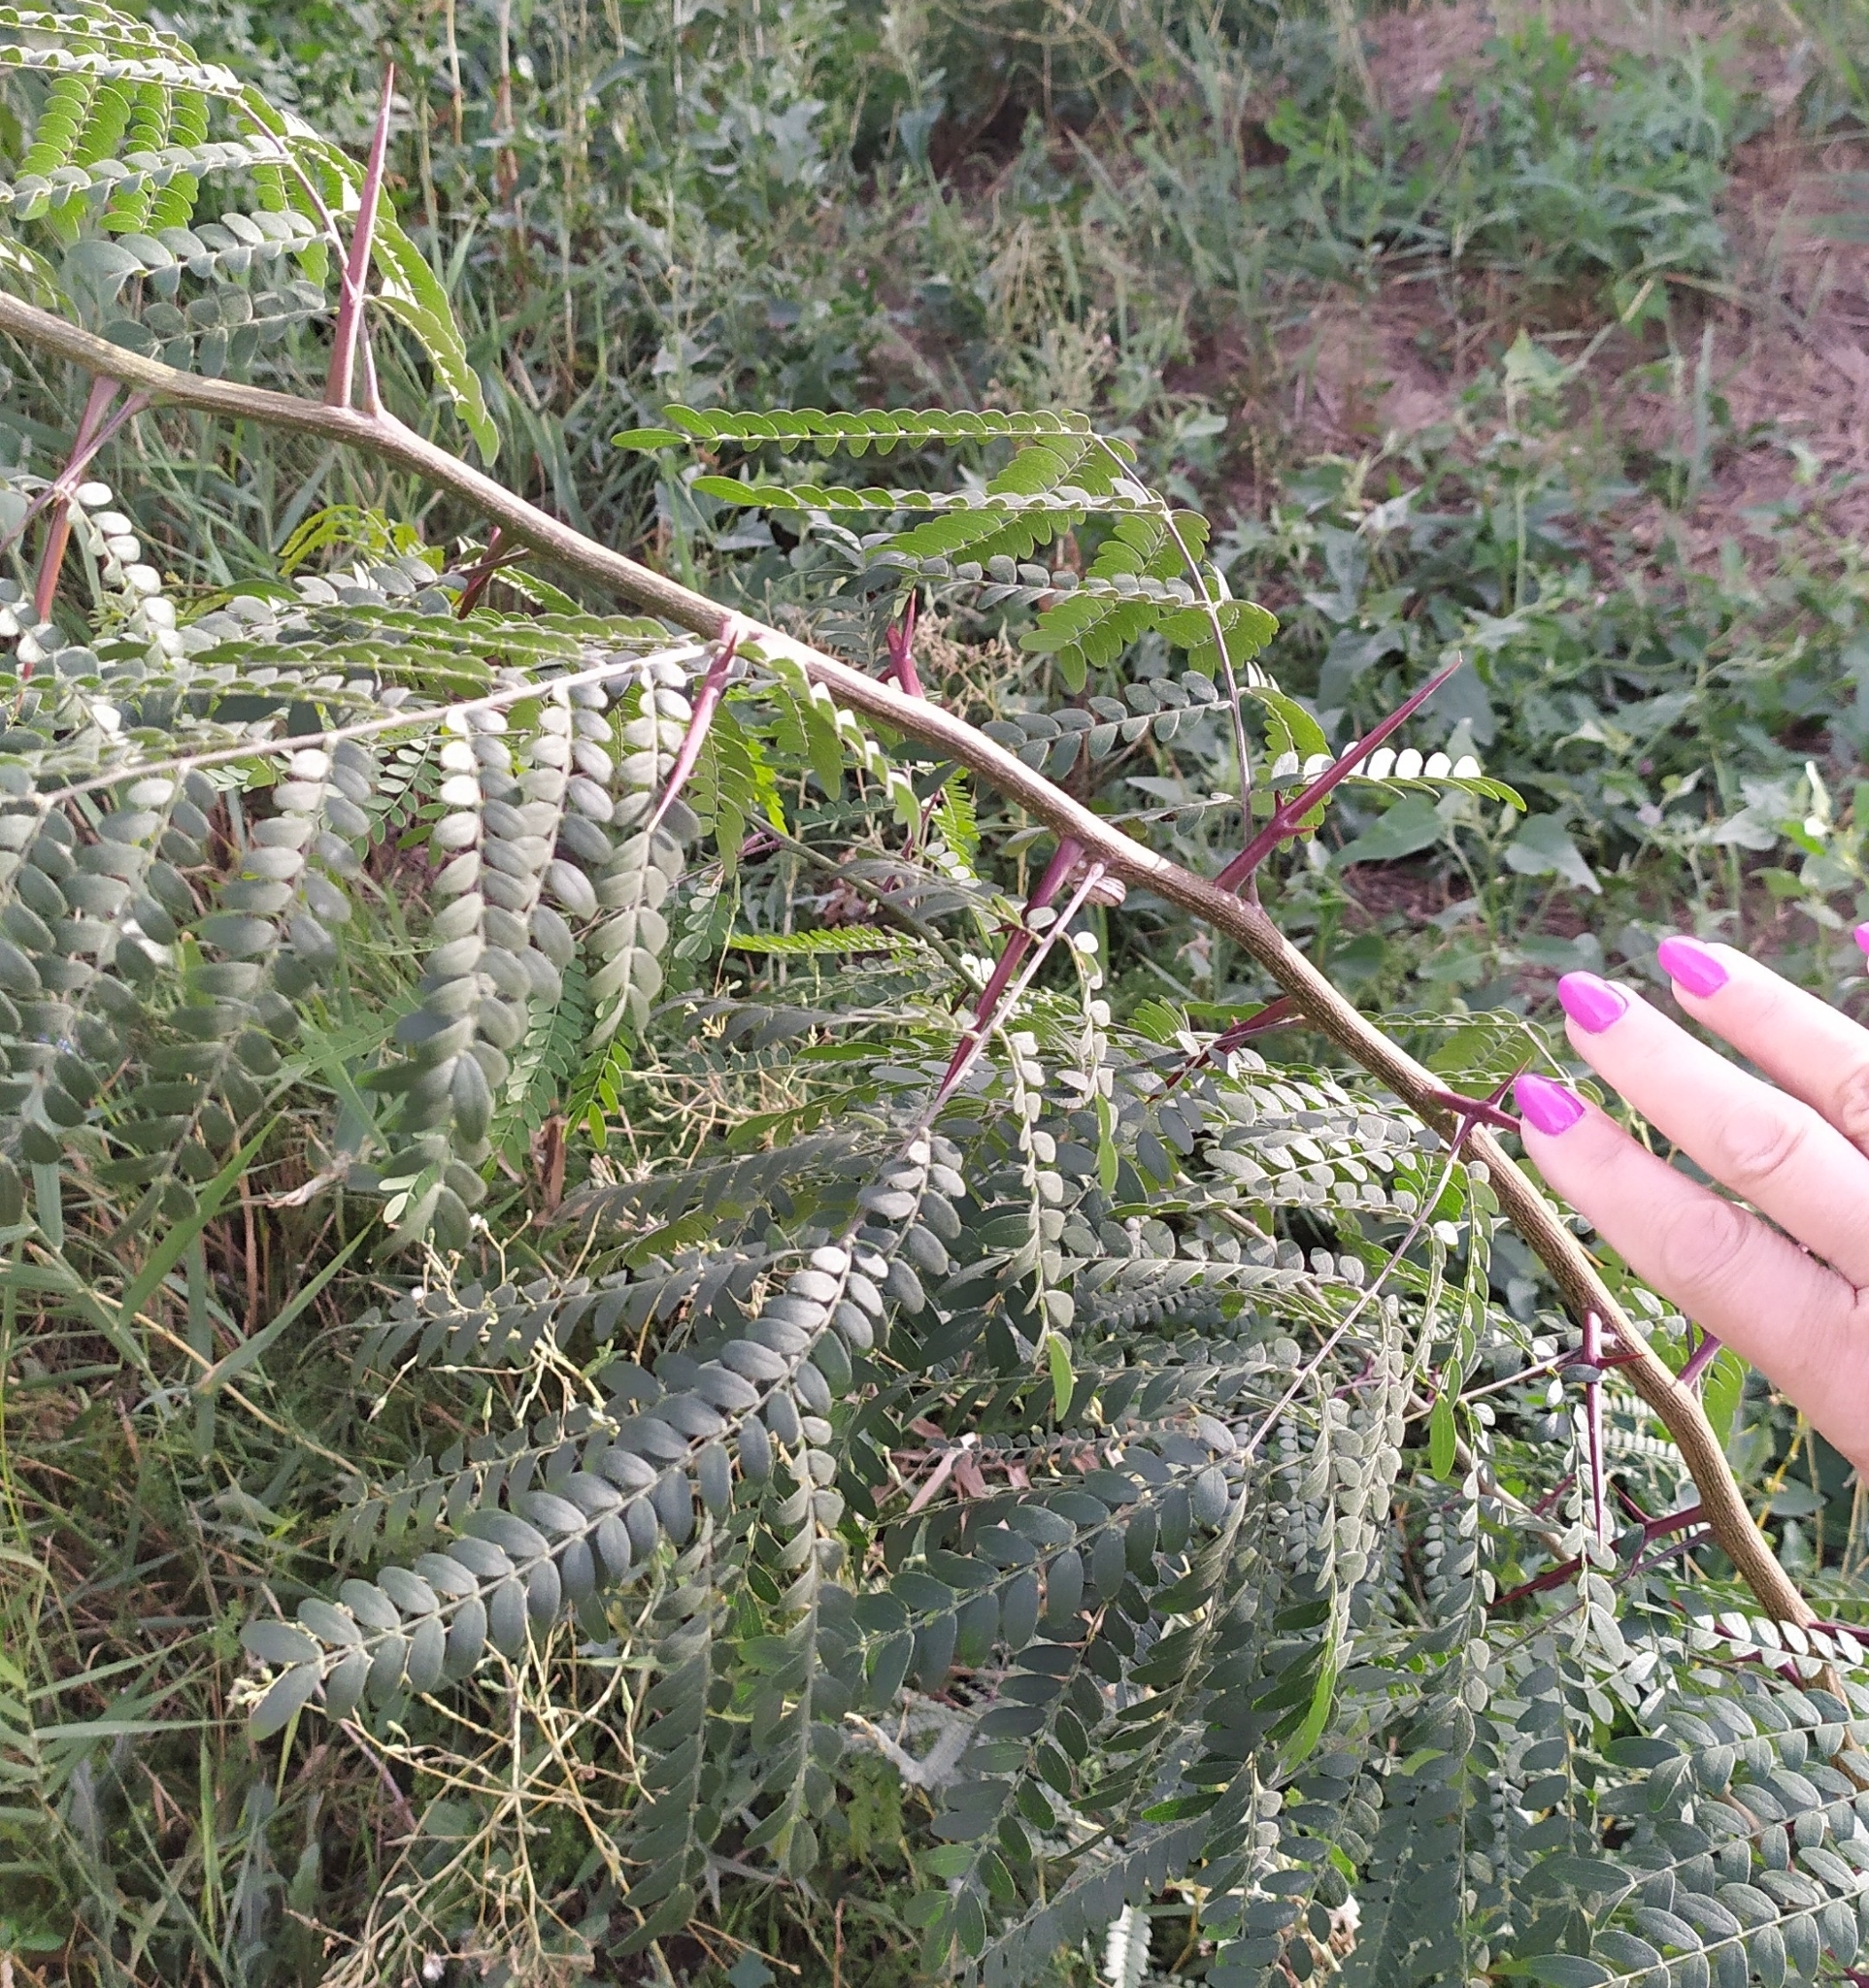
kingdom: Plantae
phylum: Tracheophyta
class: Magnoliopsida
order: Fabales
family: Fabaceae
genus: Gleditsia
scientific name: Gleditsia triacanthos
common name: Common honeylocust
